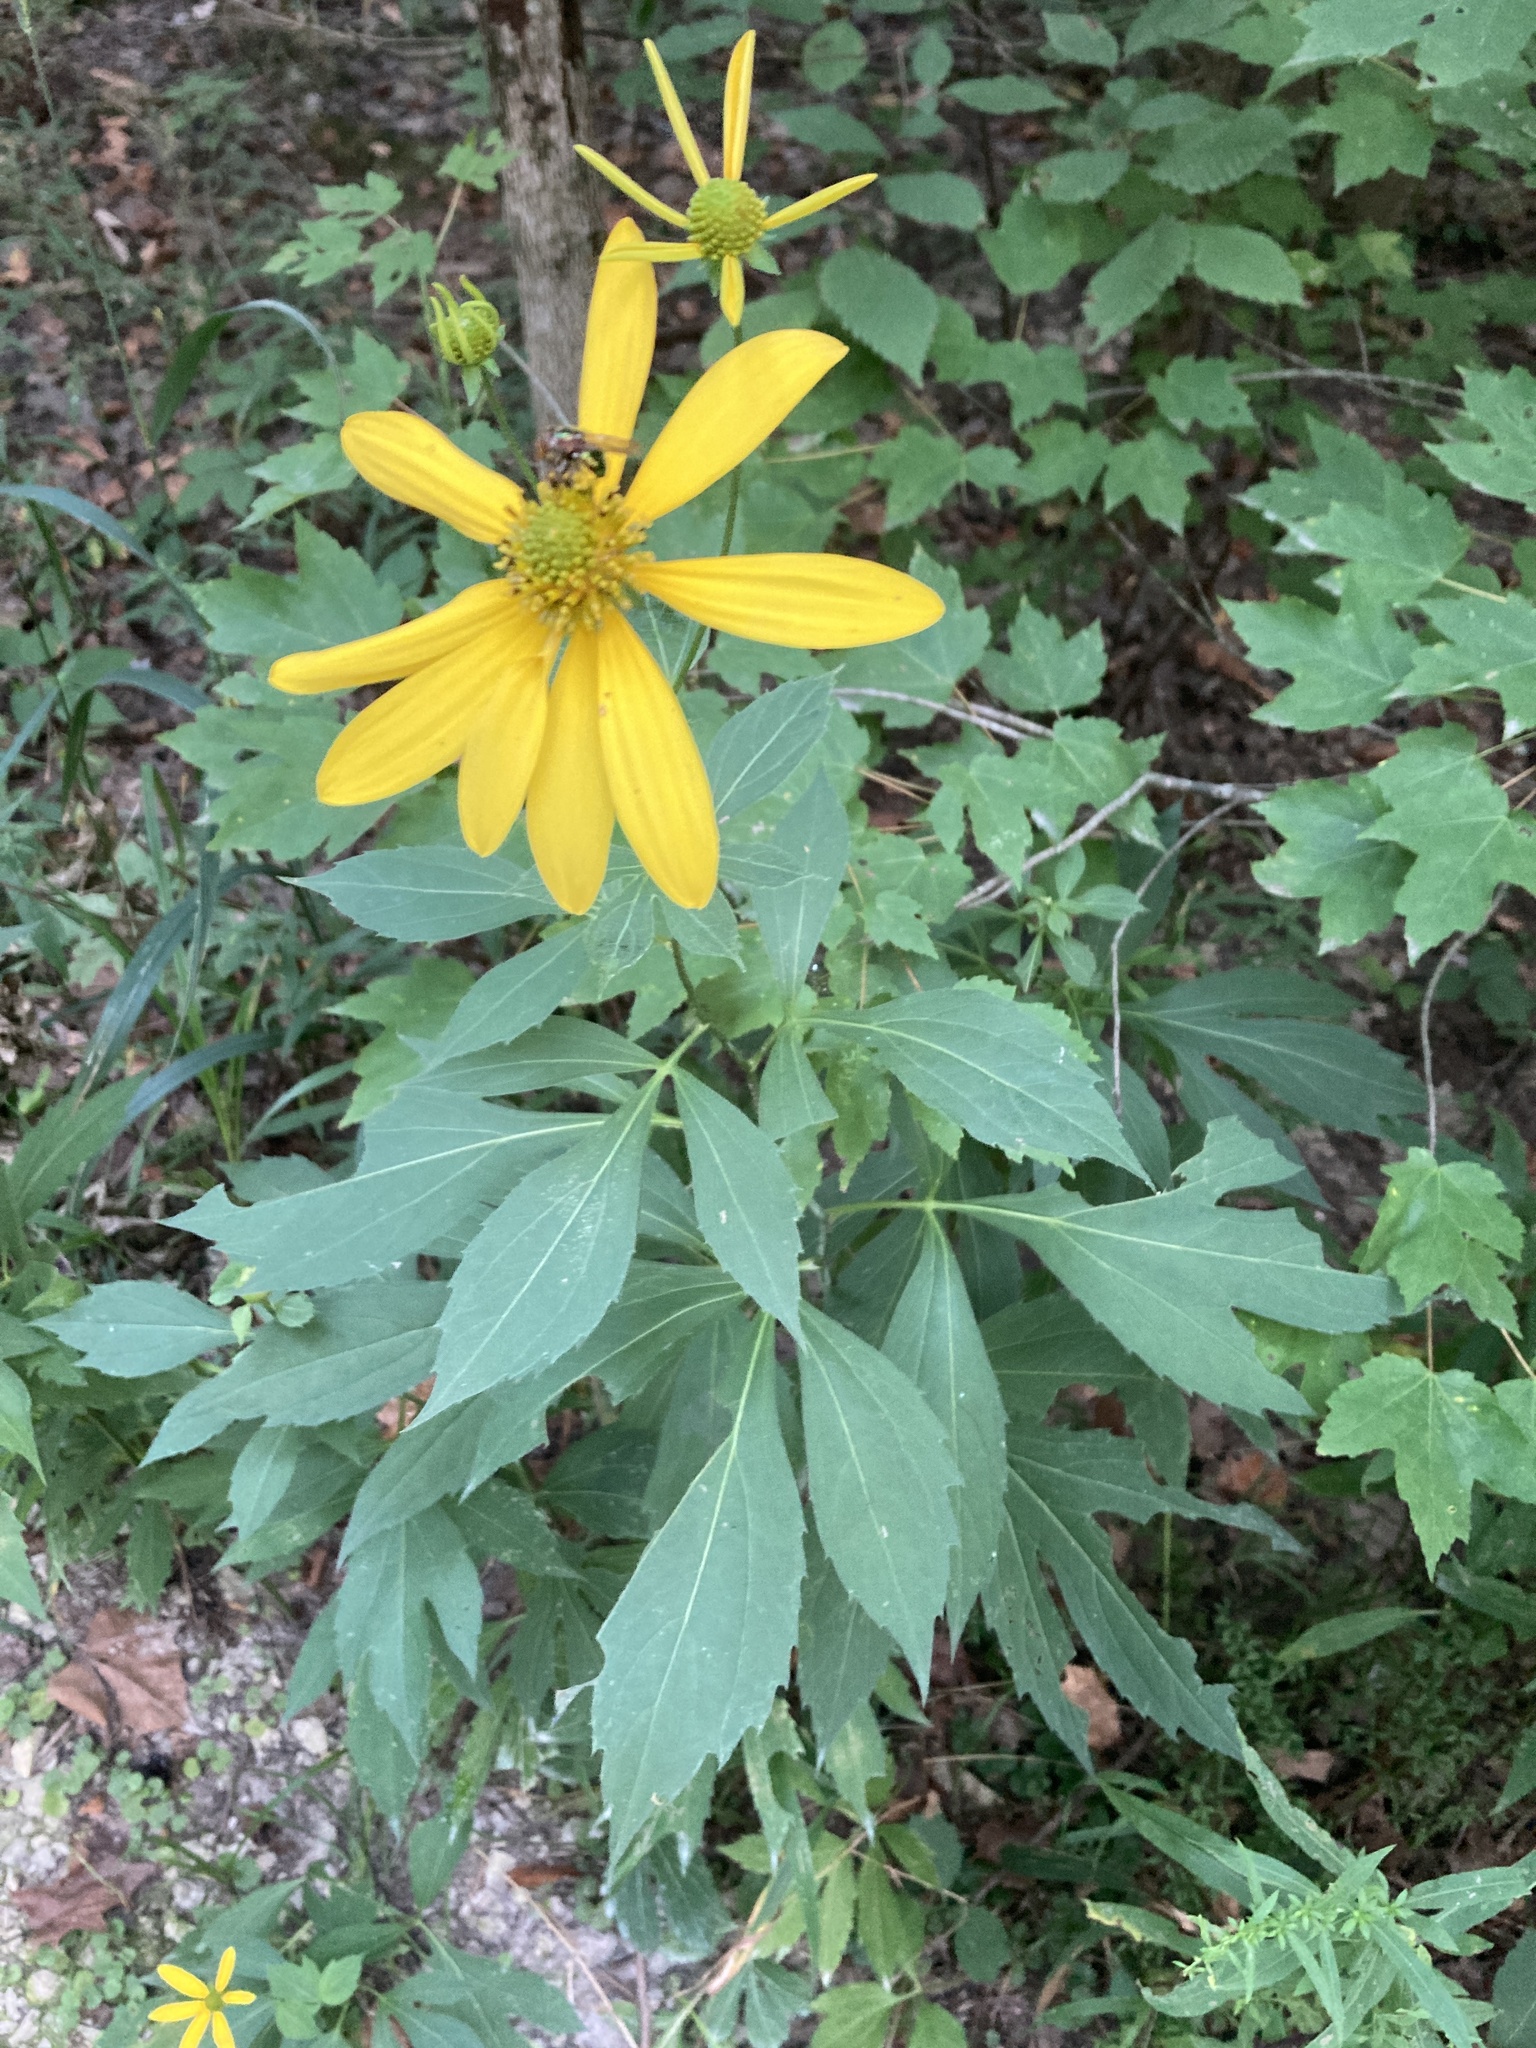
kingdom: Plantae
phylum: Tracheophyta
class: Magnoliopsida
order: Asterales
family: Asteraceae
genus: Rudbeckia
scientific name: Rudbeckia laciniata
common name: Coneflower
